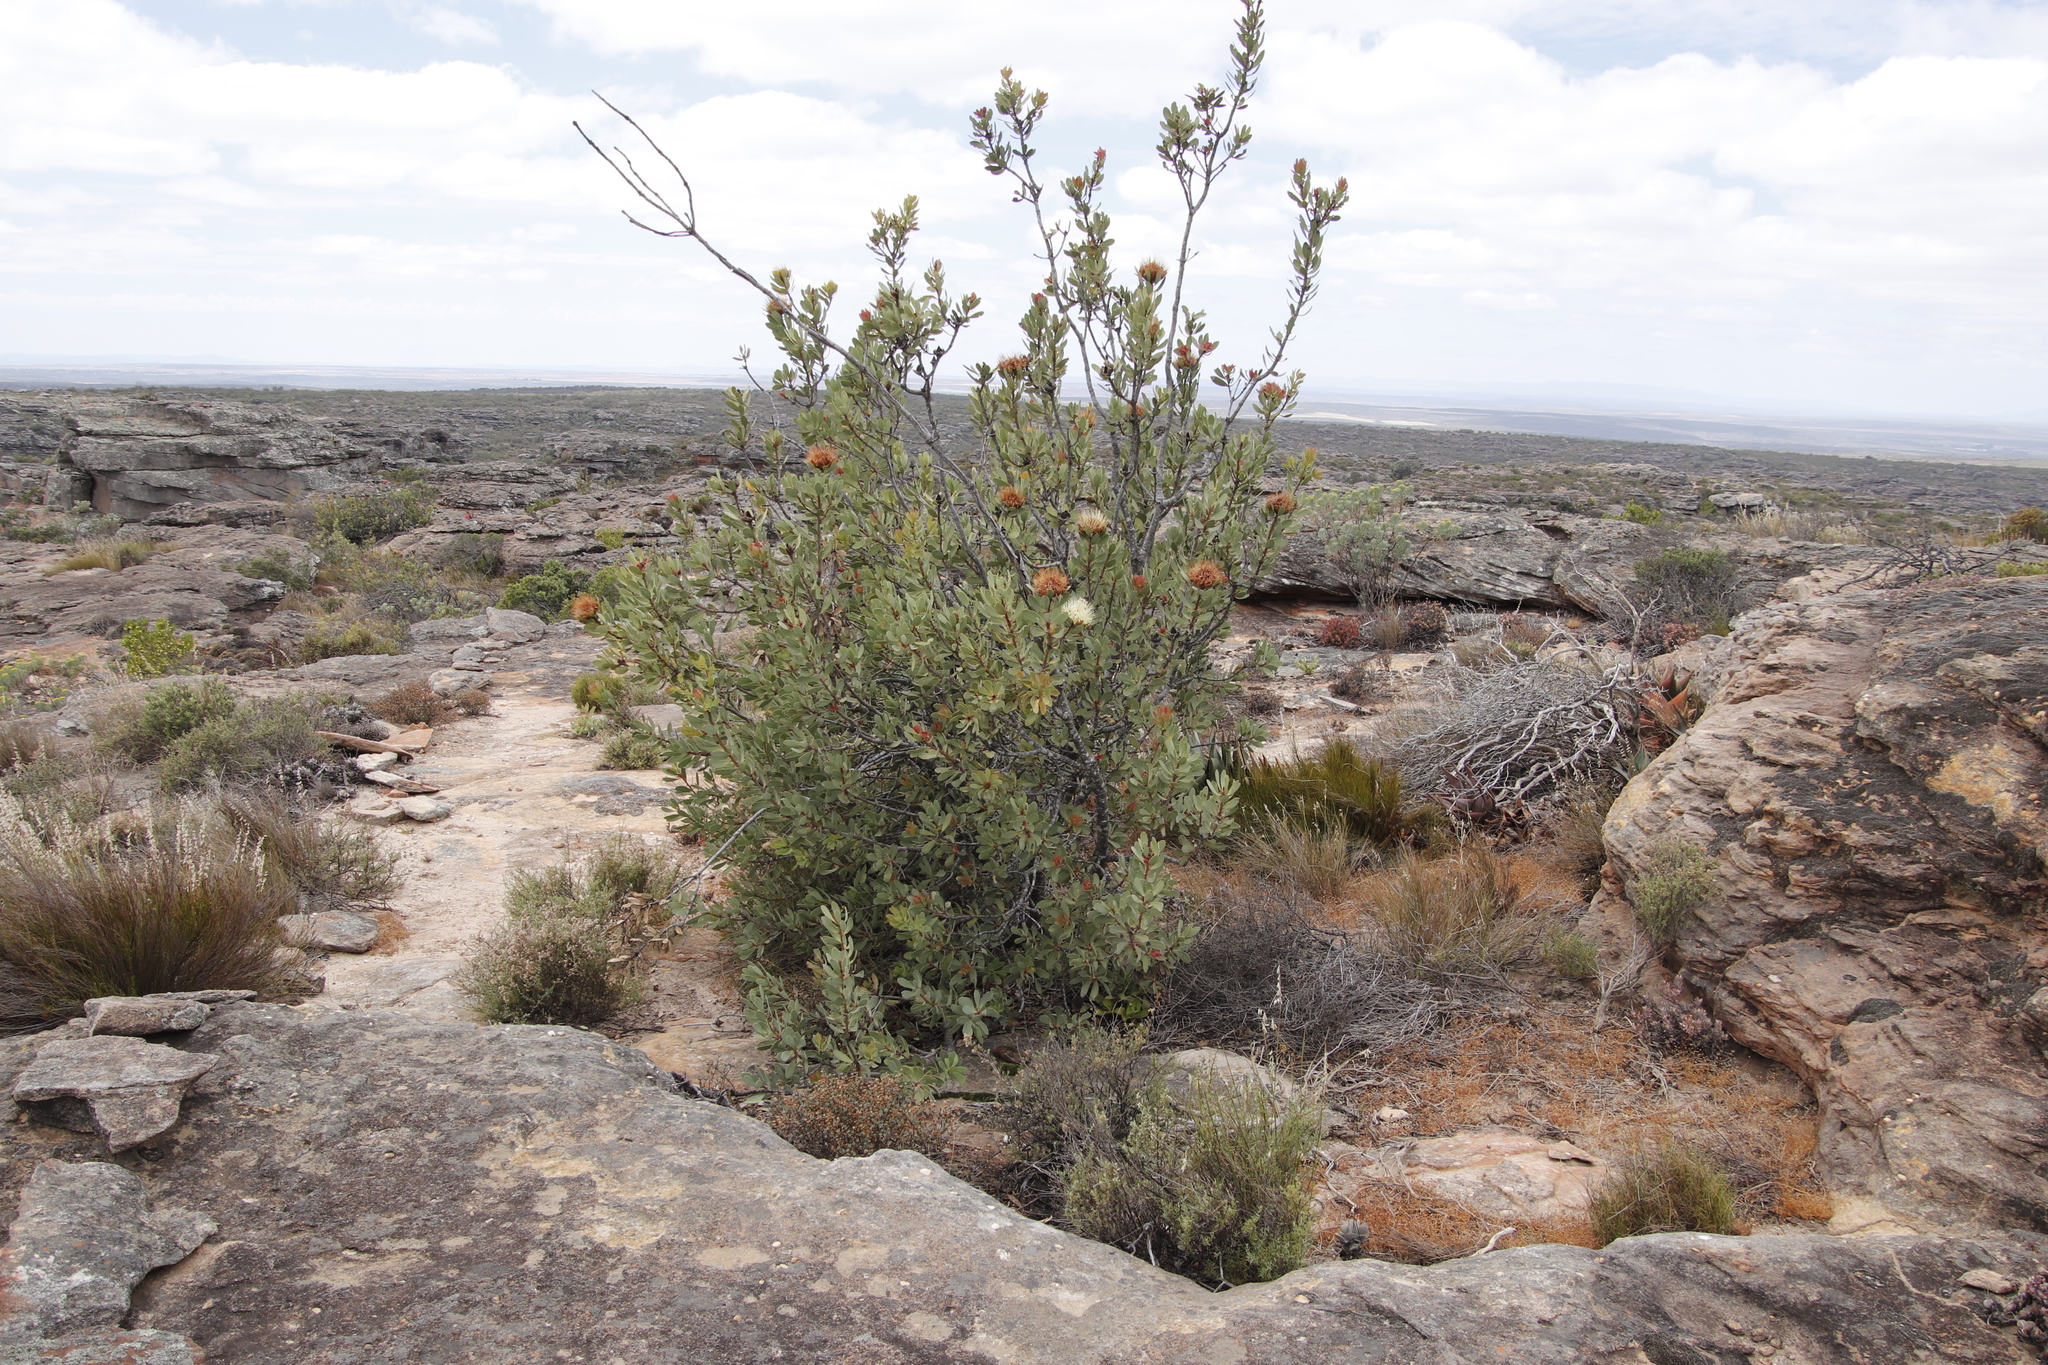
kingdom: Plantae
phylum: Tracheophyta
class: Magnoliopsida
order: Proteales
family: Proteaceae
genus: Protea
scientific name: Protea glabra
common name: Chestnut sugarbush
